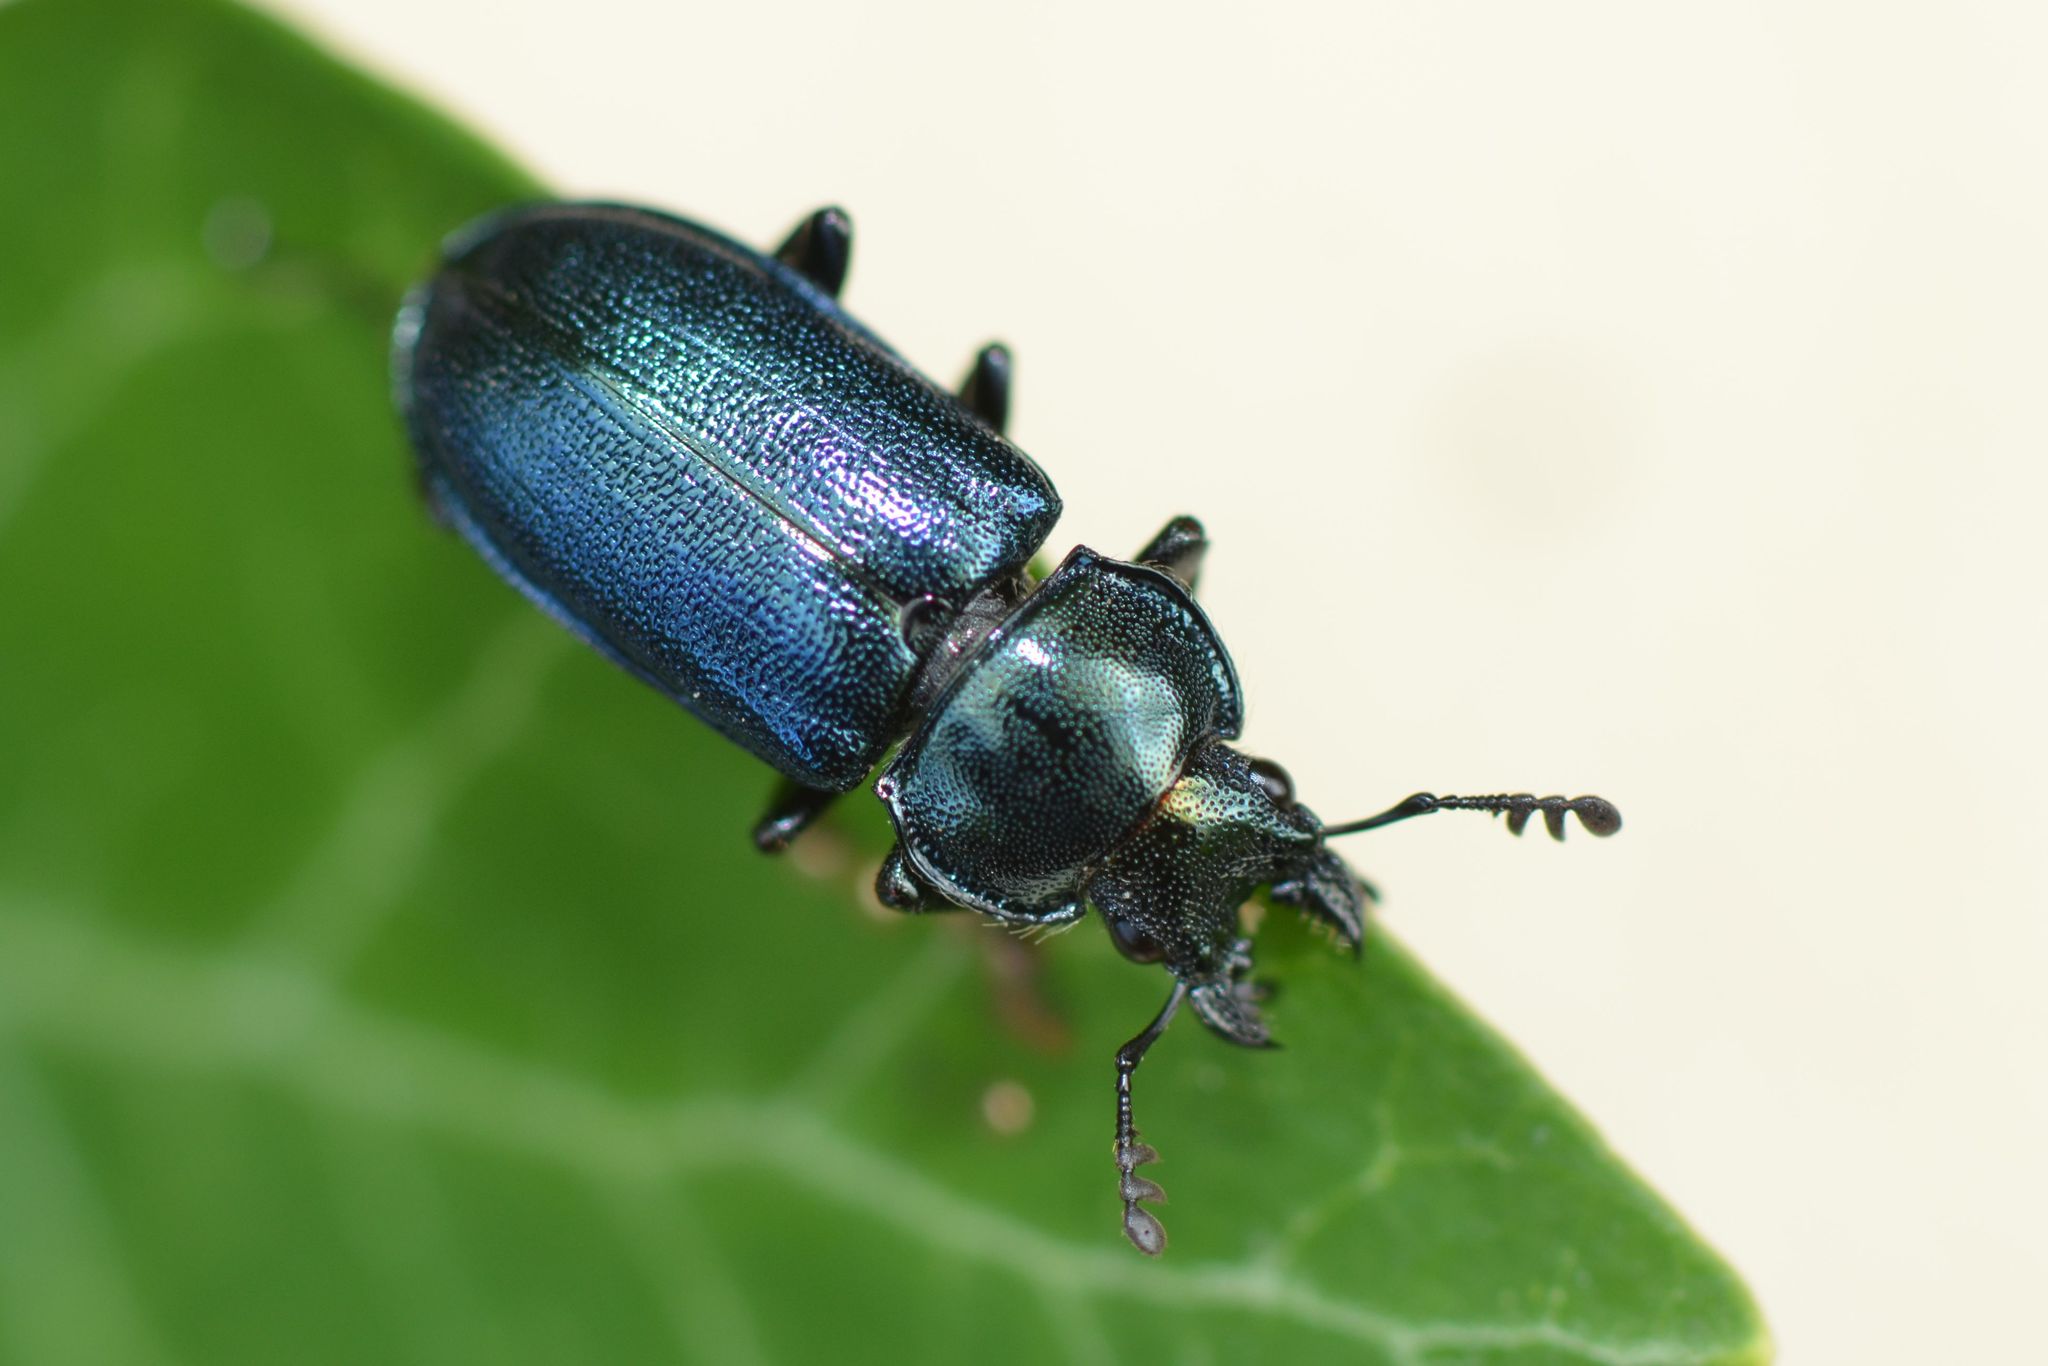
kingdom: Animalia
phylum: Arthropoda
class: Insecta
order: Coleoptera
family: Lucanidae
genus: Platycerus
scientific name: Platycerus caraboides
